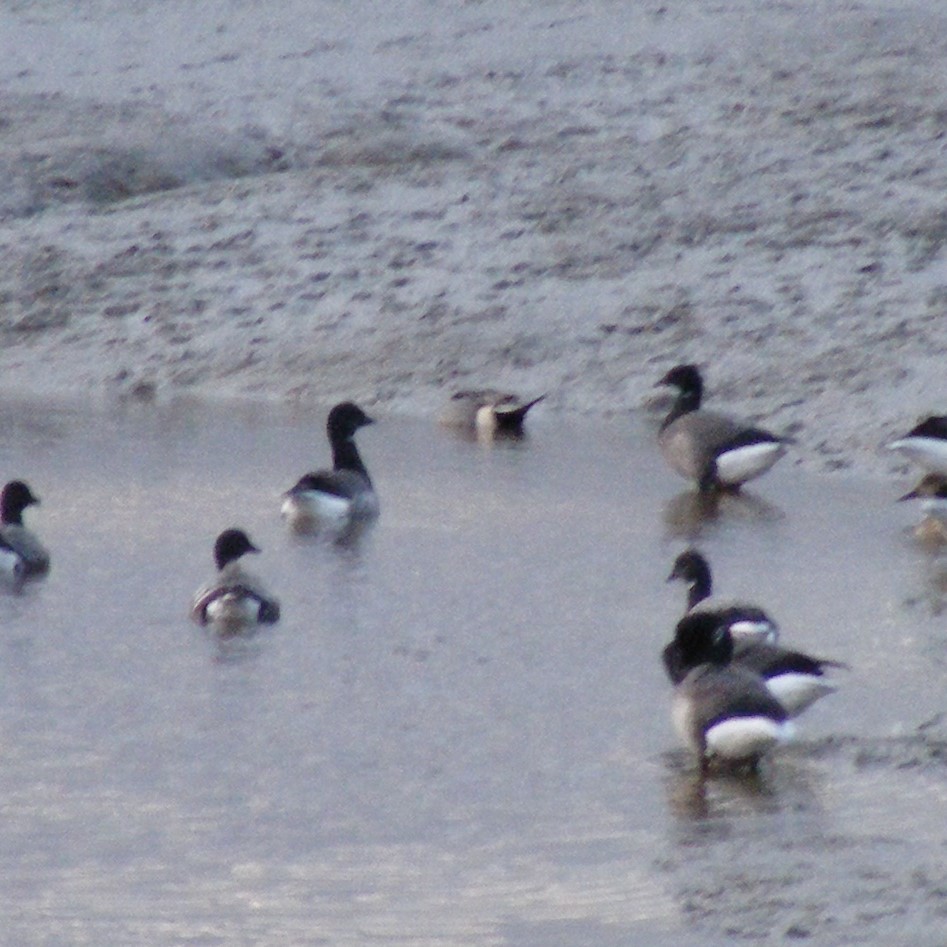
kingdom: Animalia
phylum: Chordata
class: Aves
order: Anseriformes
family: Anatidae
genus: Anas
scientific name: Anas acuta
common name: Northern pintail
